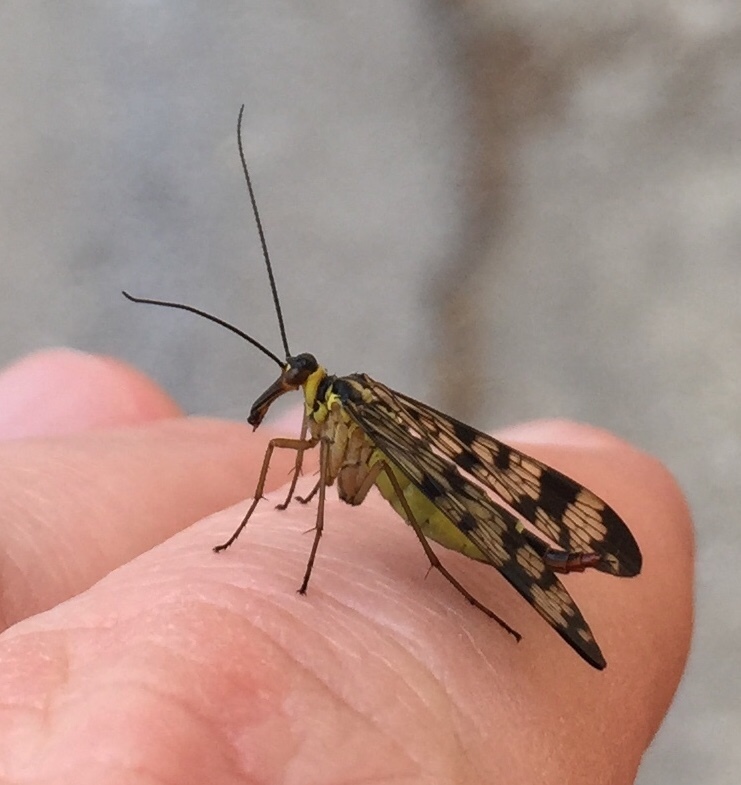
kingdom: Animalia
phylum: Arthropoda
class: Insecta
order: Mecoptera
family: Panorpidae
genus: Panorpa
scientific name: Panorpa communis
